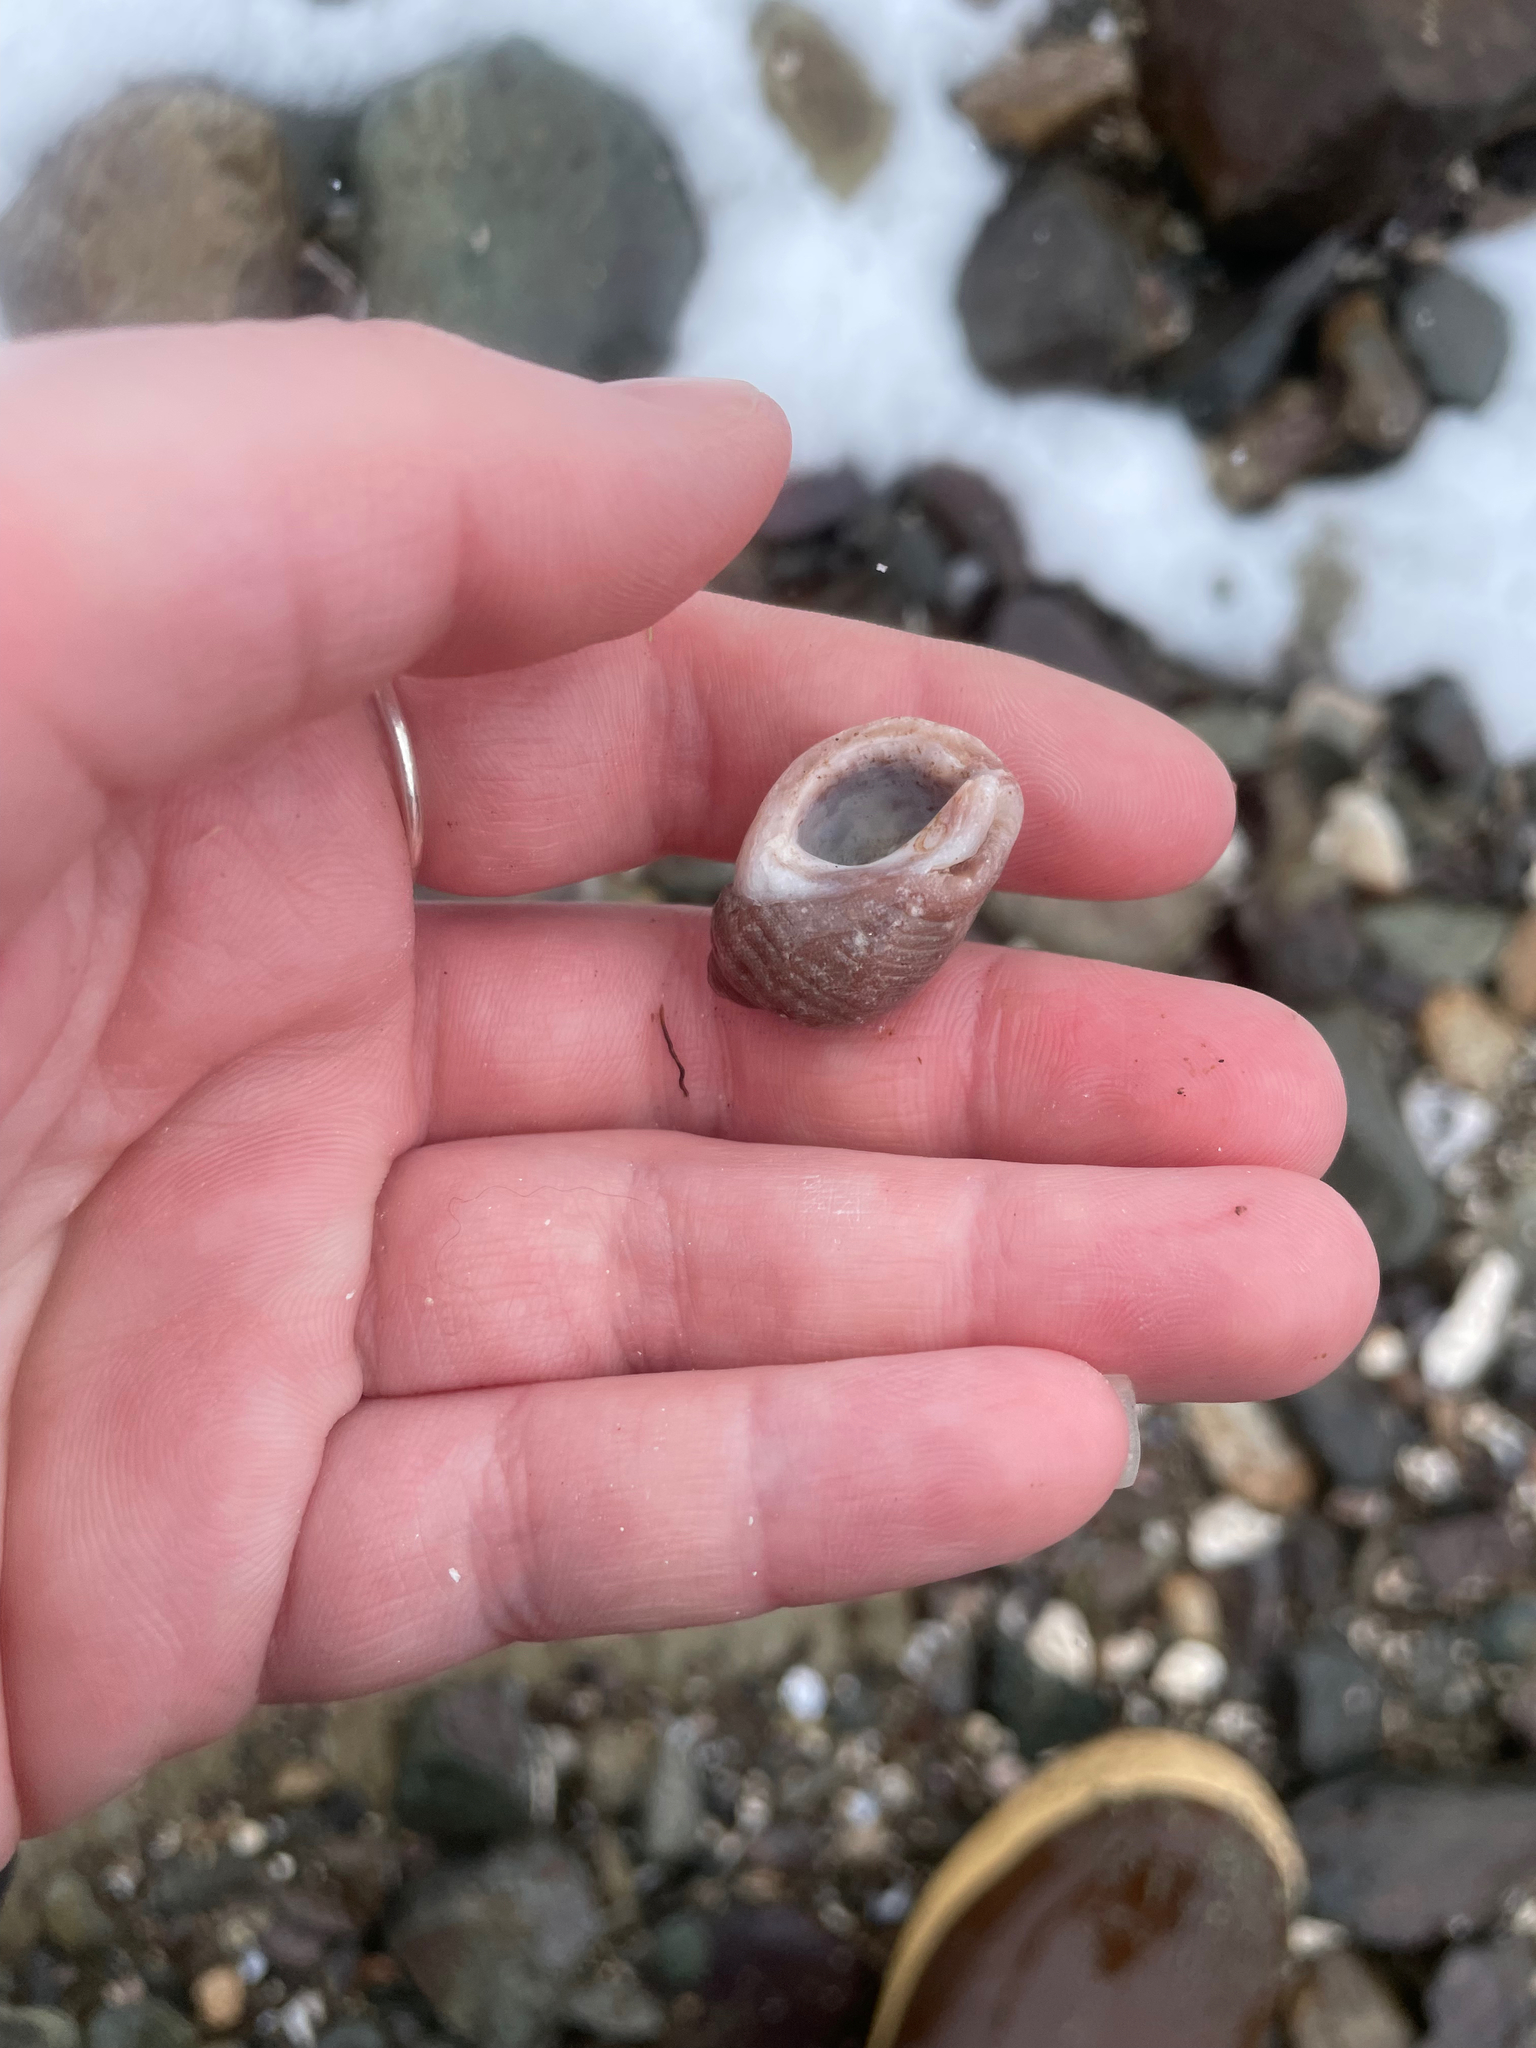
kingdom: Animalia
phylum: Mollusca
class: Gastropoda
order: Neogastropoda
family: Muricidae
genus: Nucella
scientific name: Nucella lapillus
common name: Dog whelk
